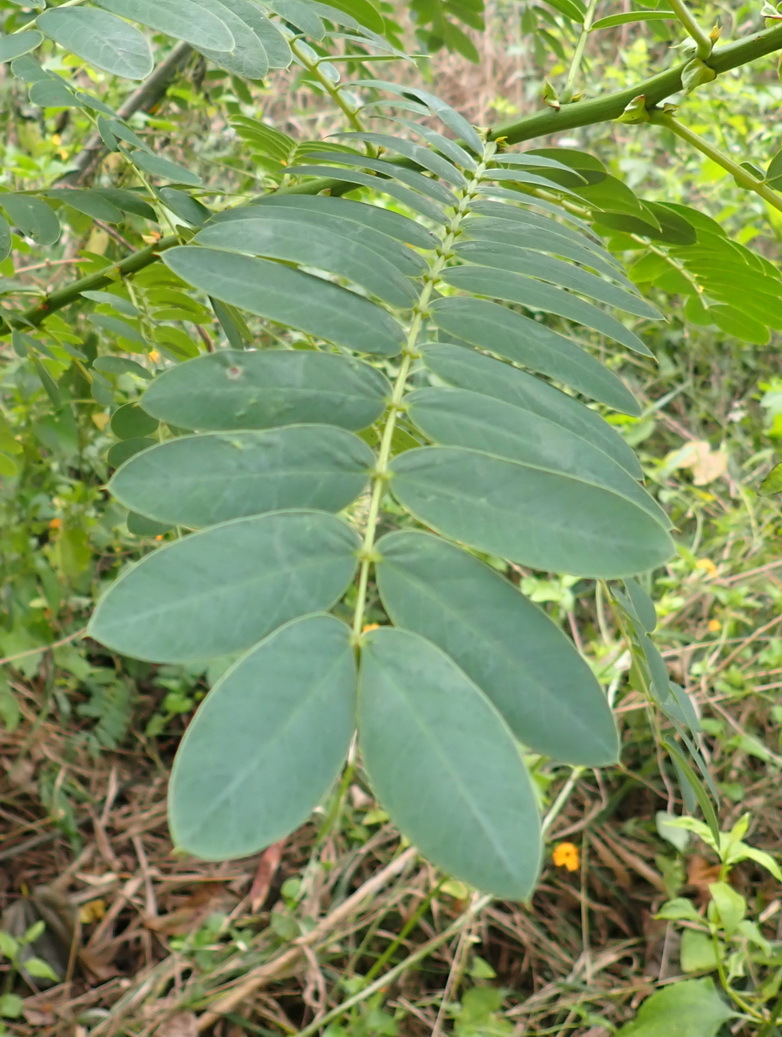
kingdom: Plantae
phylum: Tracheophyta
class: Magnoliopsida
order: Fabales
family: Fabaceae
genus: Senna
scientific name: Senna didymobotrya
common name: African senna
